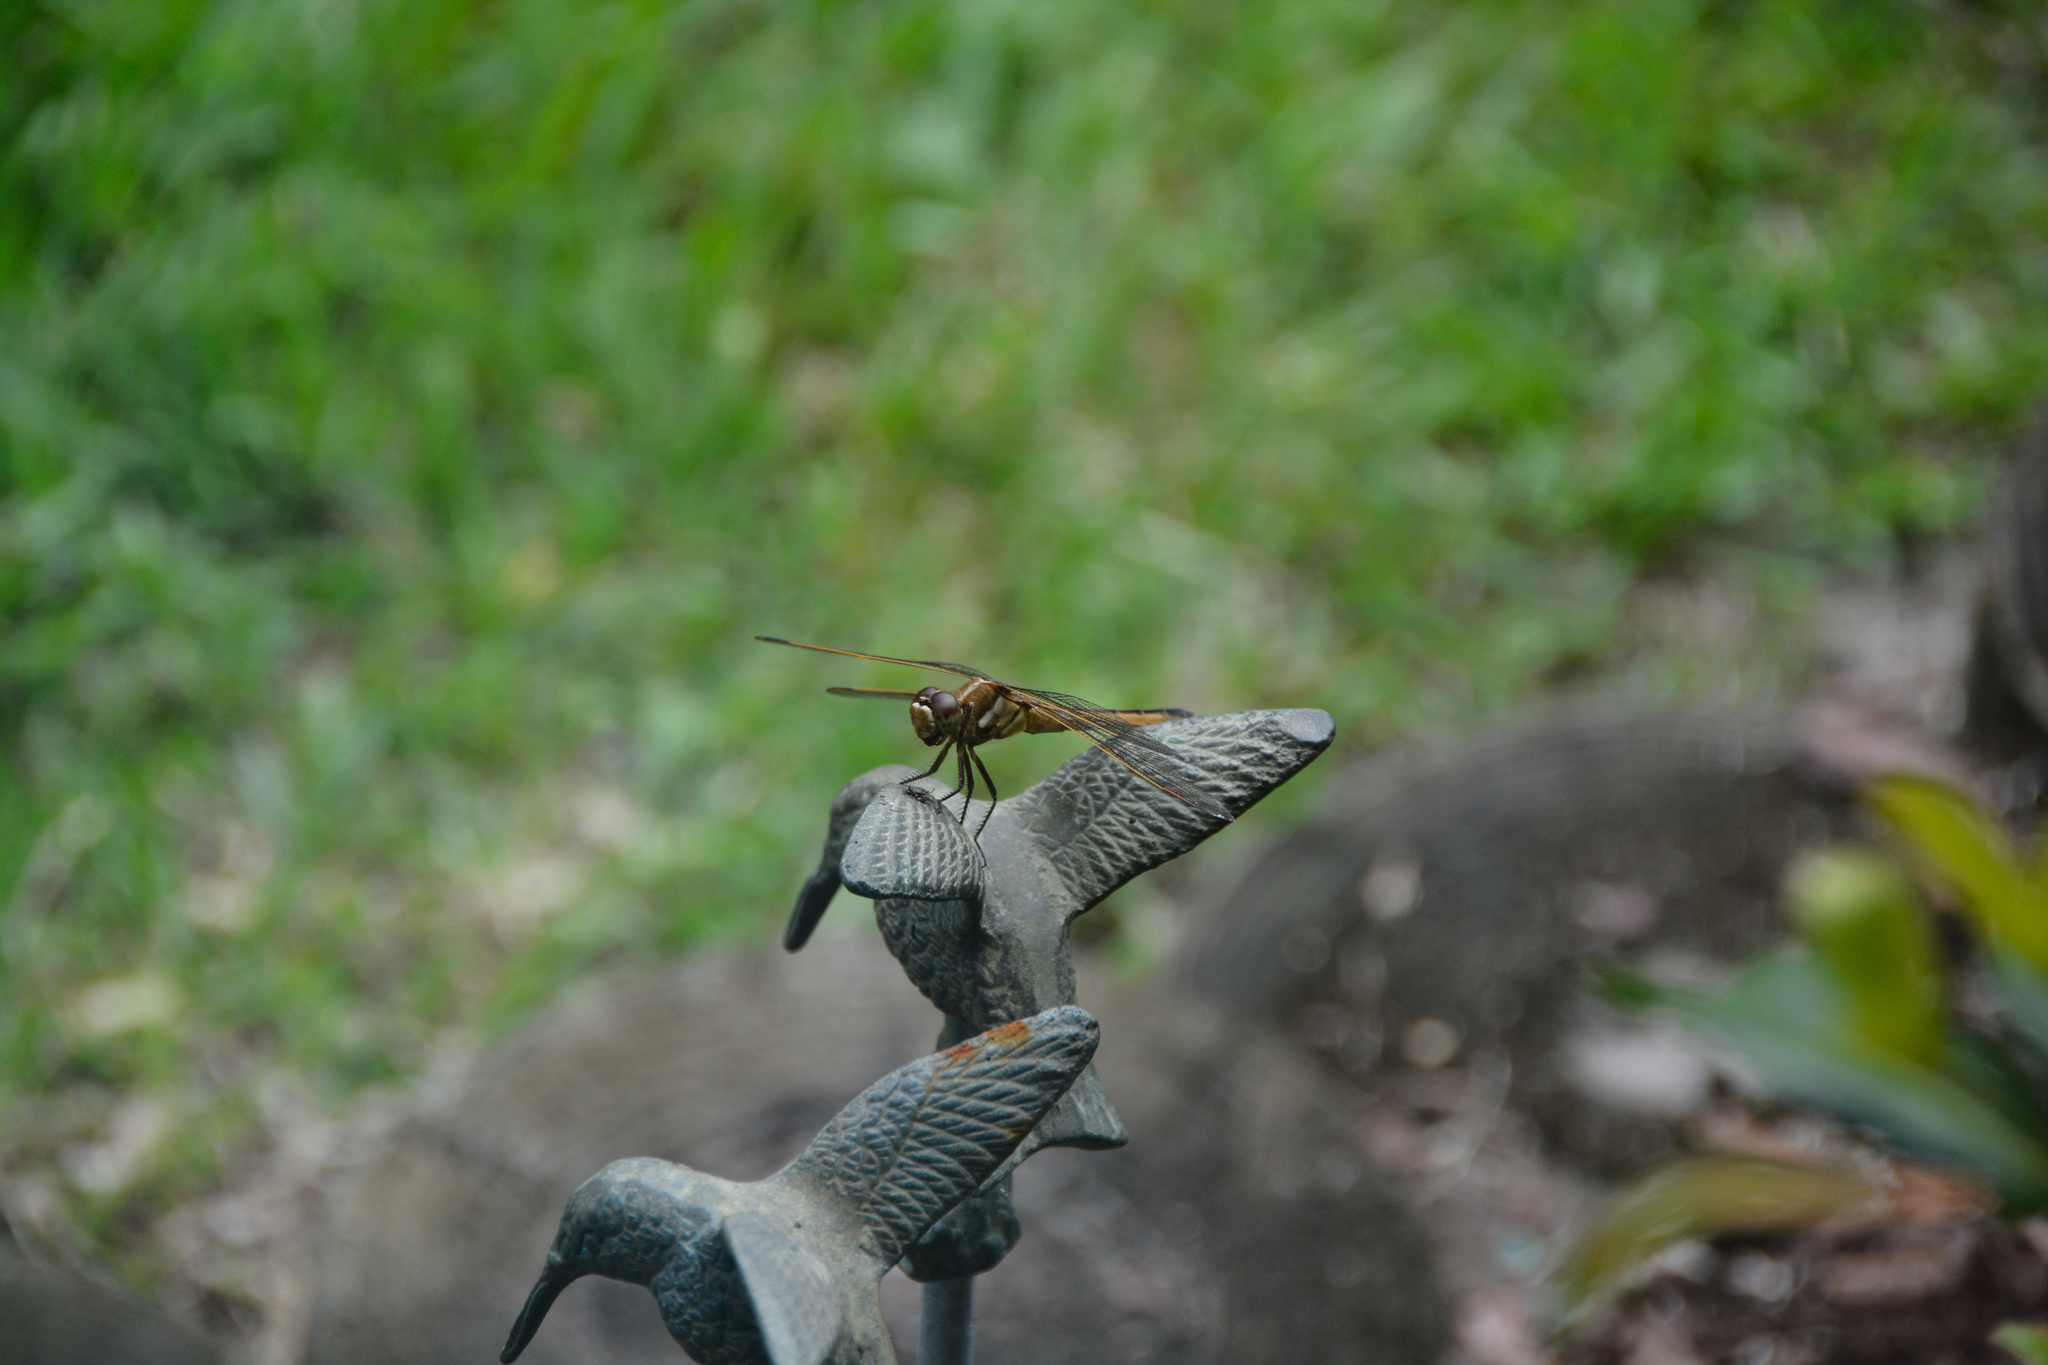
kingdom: Animalia
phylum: Arthropoda
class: Insecta
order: Odonata
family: Libellulidae
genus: Libellula
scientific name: Libellula auripennis
